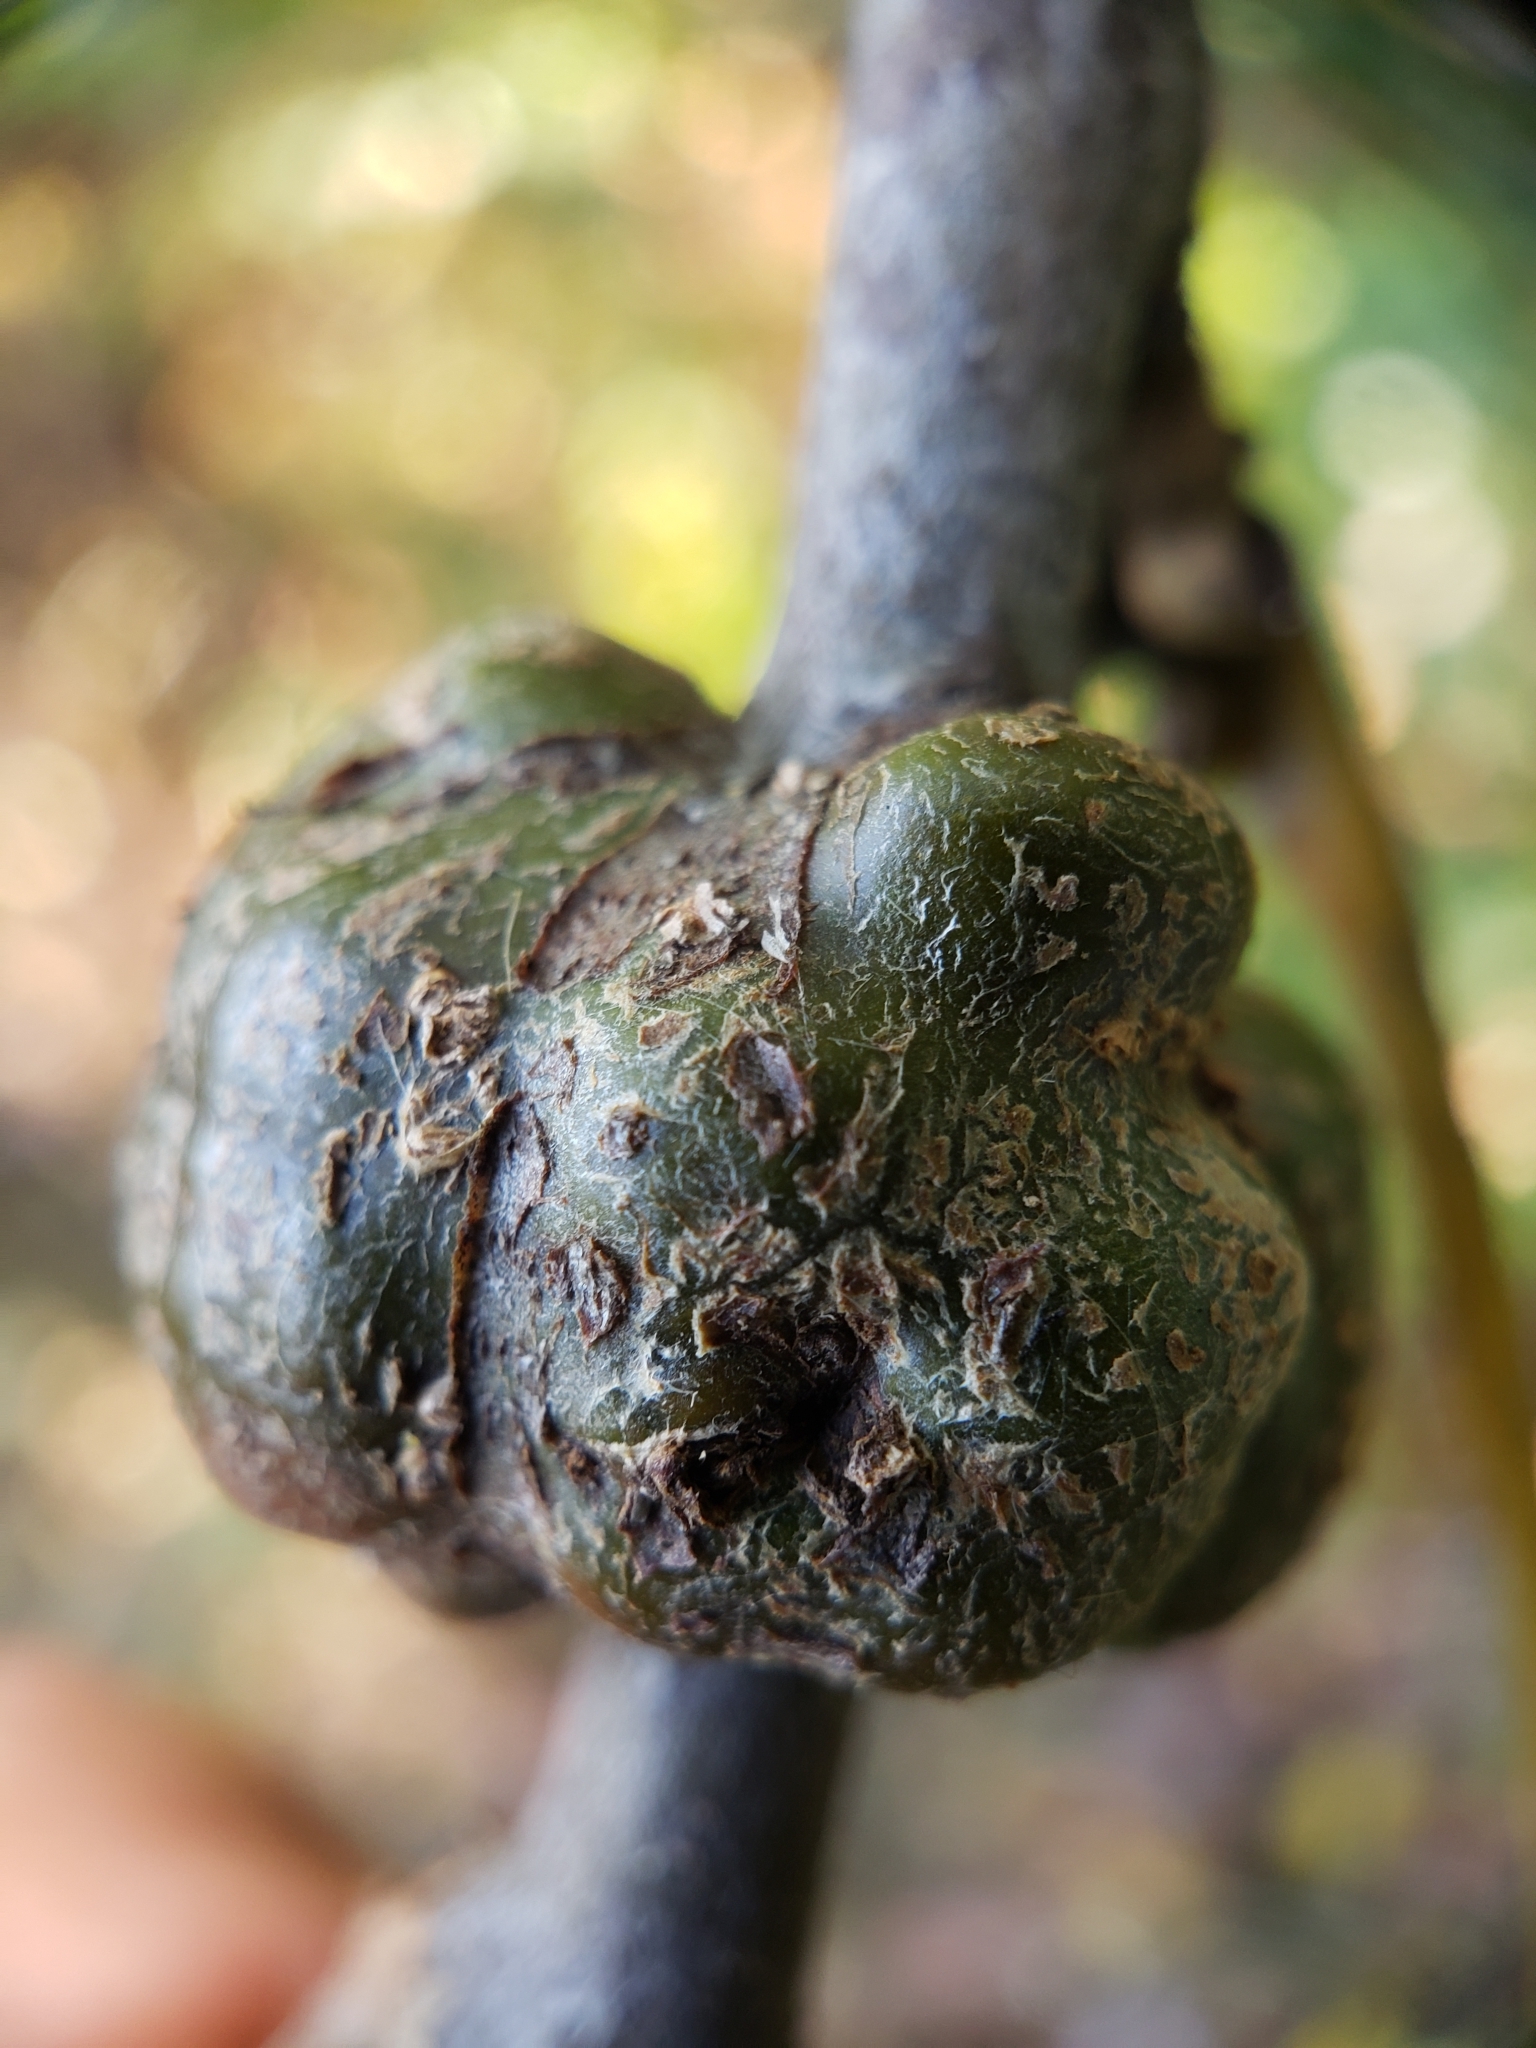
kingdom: Animalia
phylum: Arthropoda
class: Insecta
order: Hymenoptera
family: Cynipidae
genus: Callirhytis
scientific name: Callirhytis
